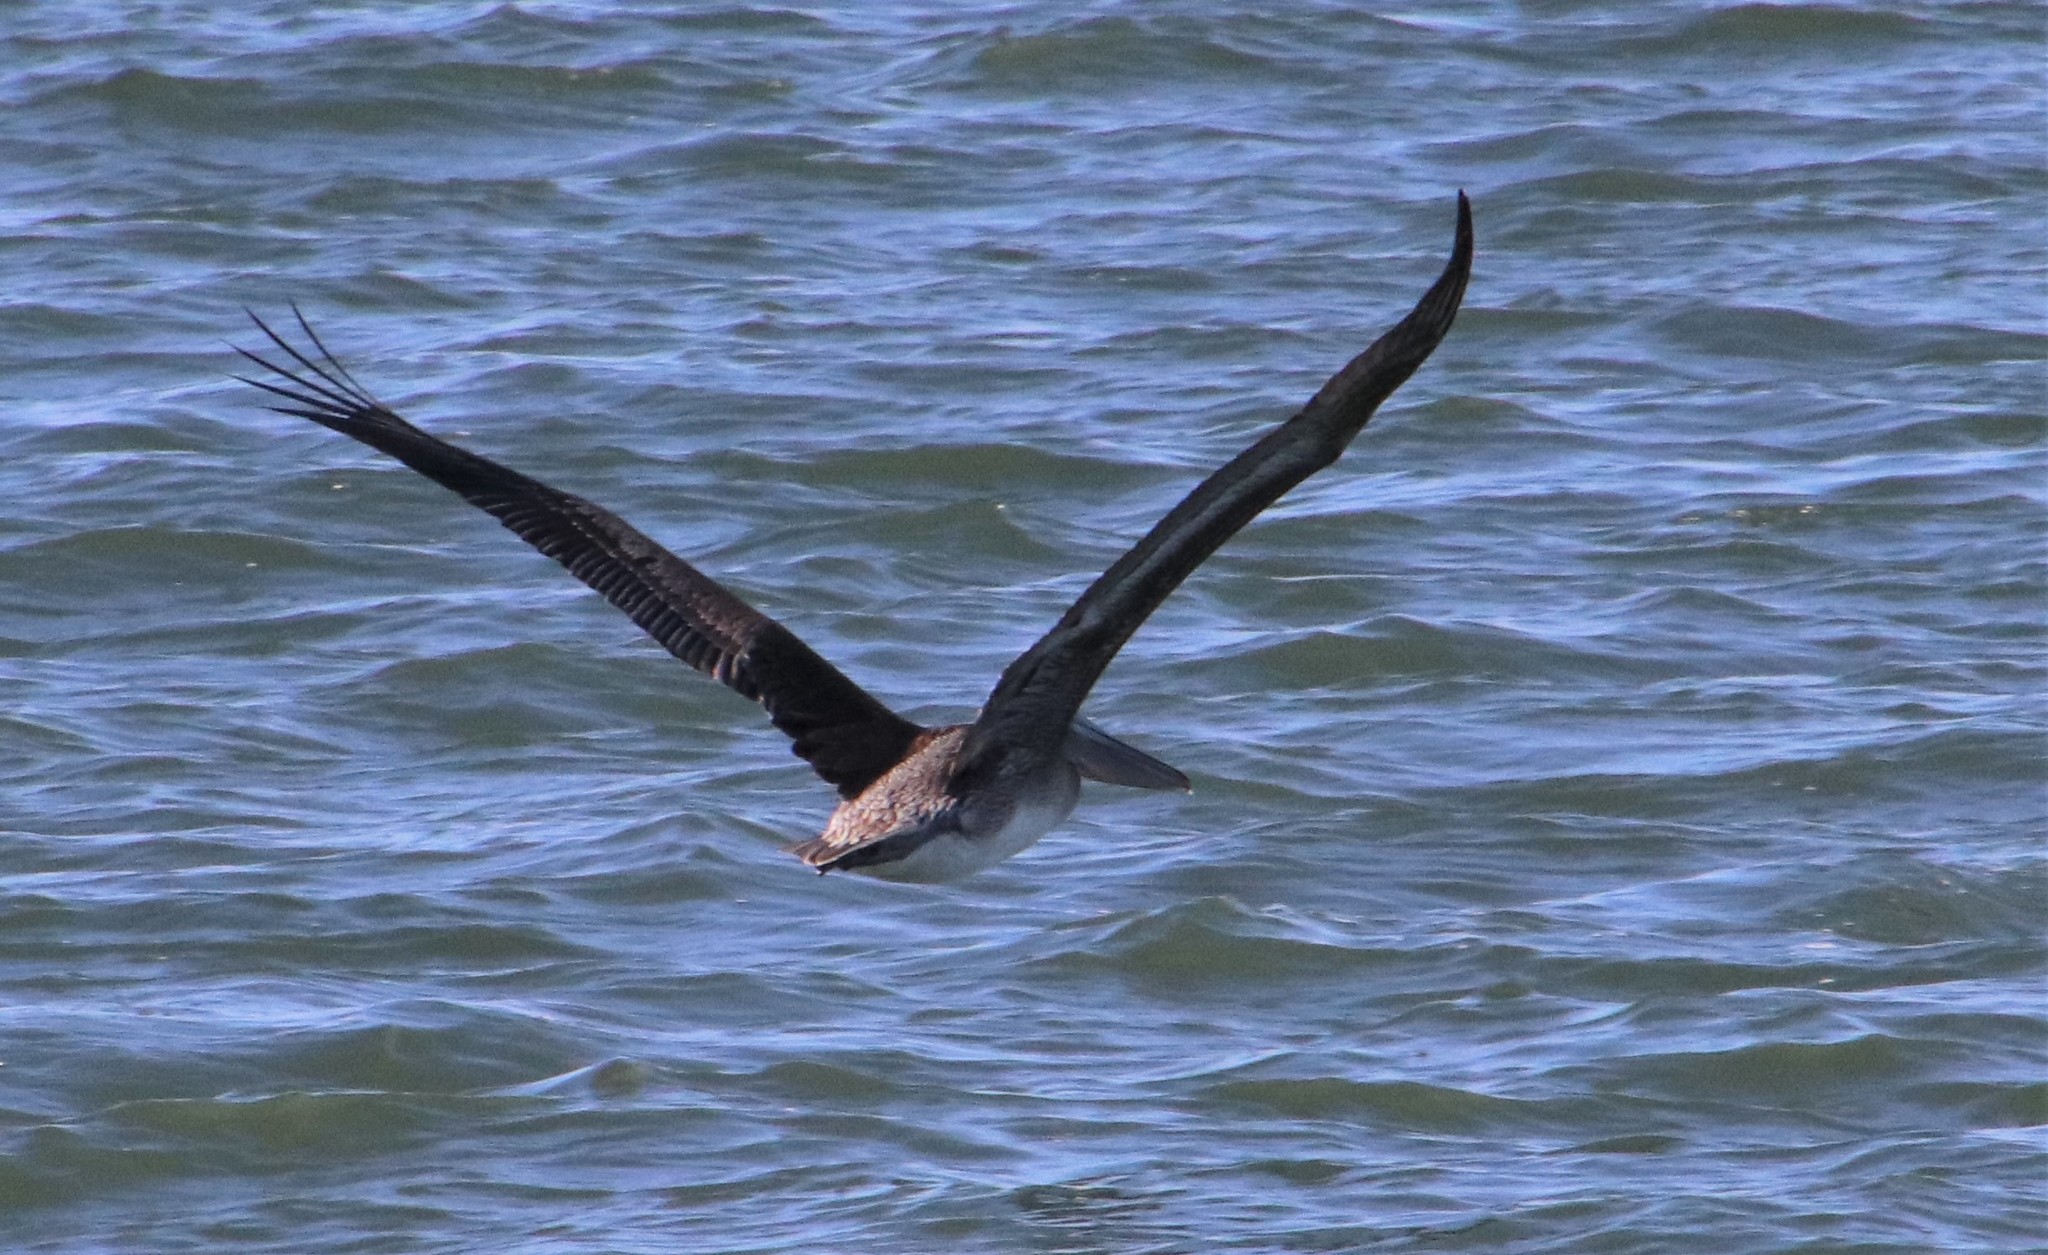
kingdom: Animalia
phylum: Chordata
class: Aves
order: Pelecaniformes
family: Pelecanidae
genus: Pelecanus
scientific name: Pelecanus occidentalis
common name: Brown pelican
